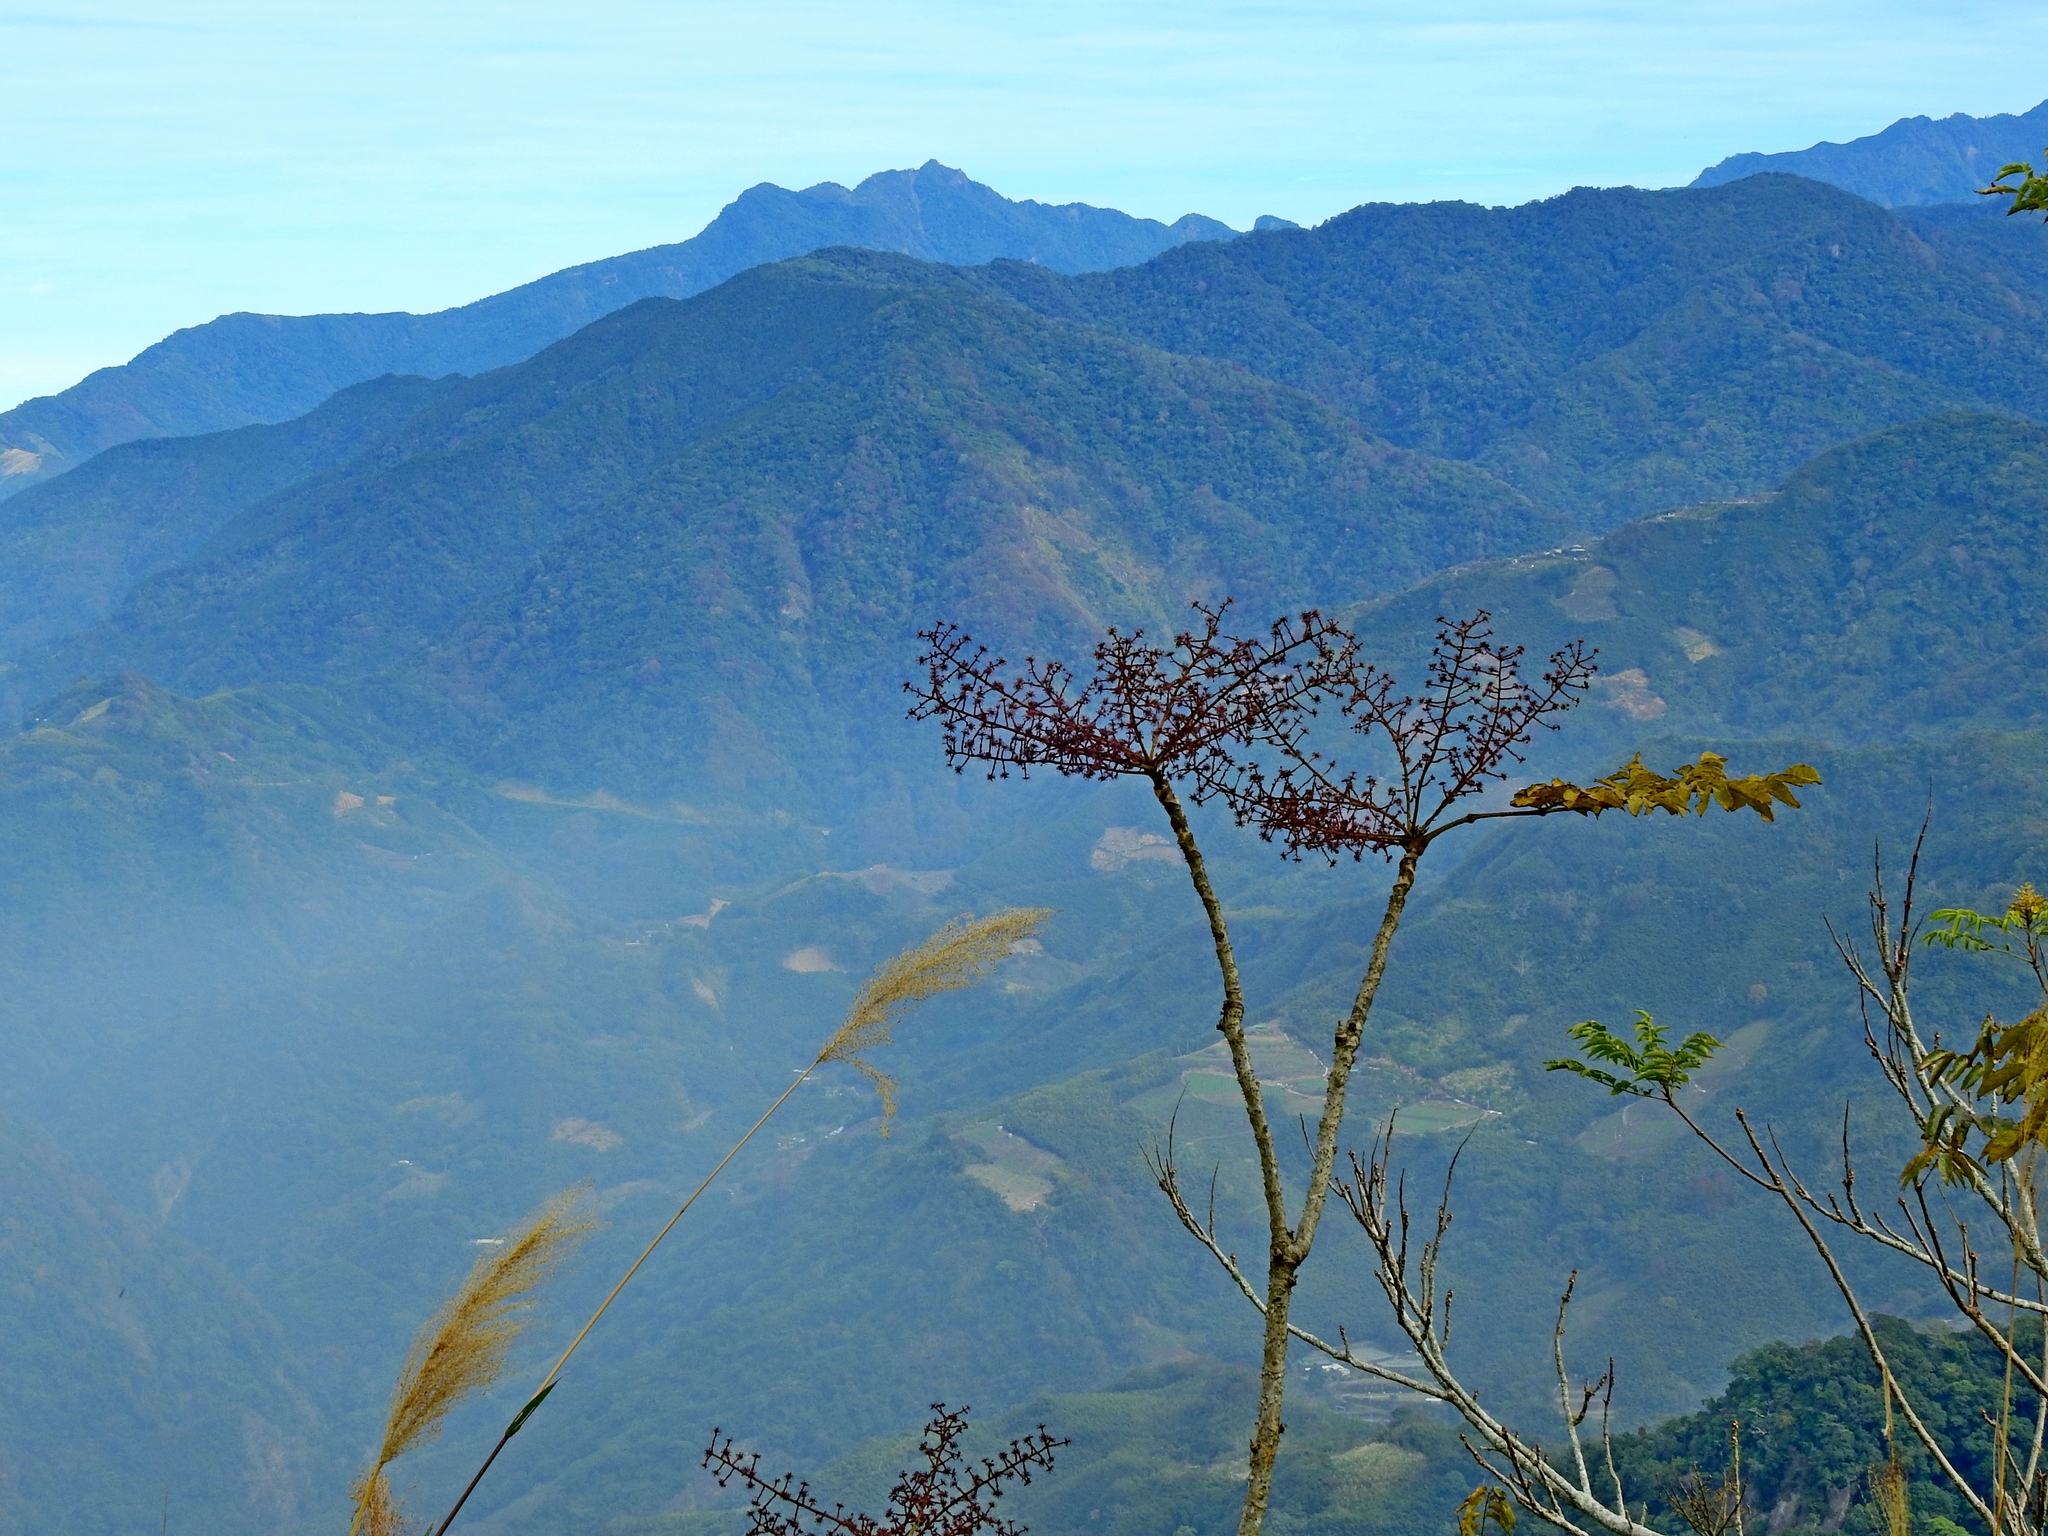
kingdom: Plantae
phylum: Tracheophyta
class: Magnoliopsida
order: Apiales
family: Araliaceae
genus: Aralia
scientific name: Aralia decaisneana
